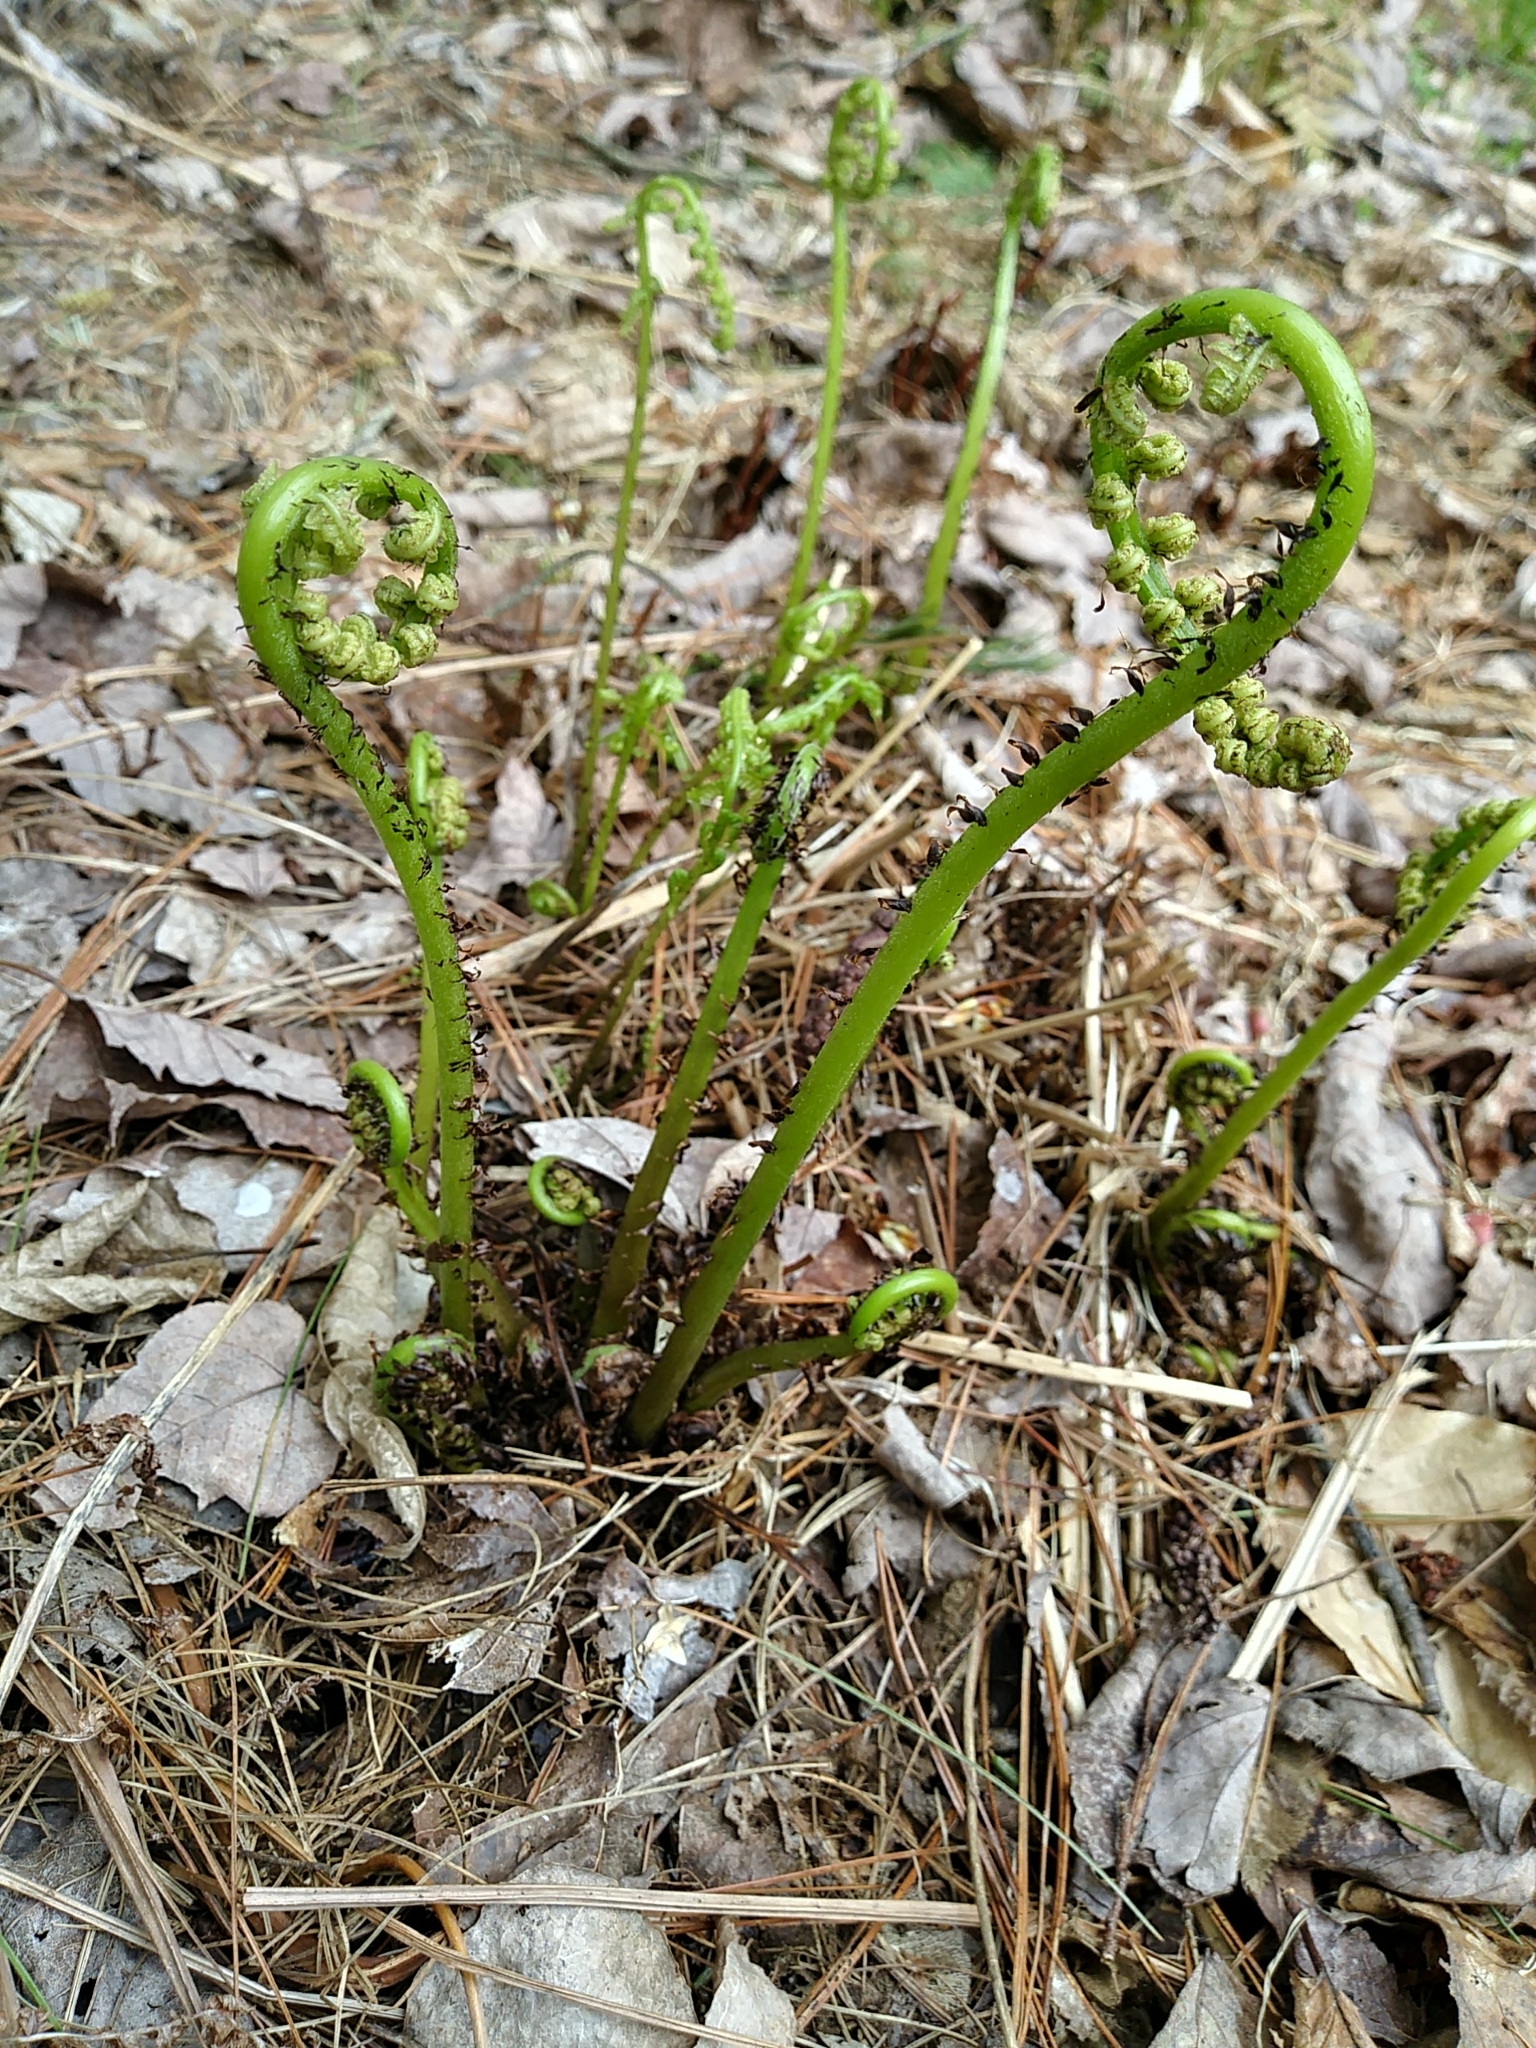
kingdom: Plantae
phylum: Tracheophyta
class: Polypodiopsida
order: Polypodiales
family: Athyriaceae
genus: Athyrium
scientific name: Athyrium angustum
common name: Northern lady fern
